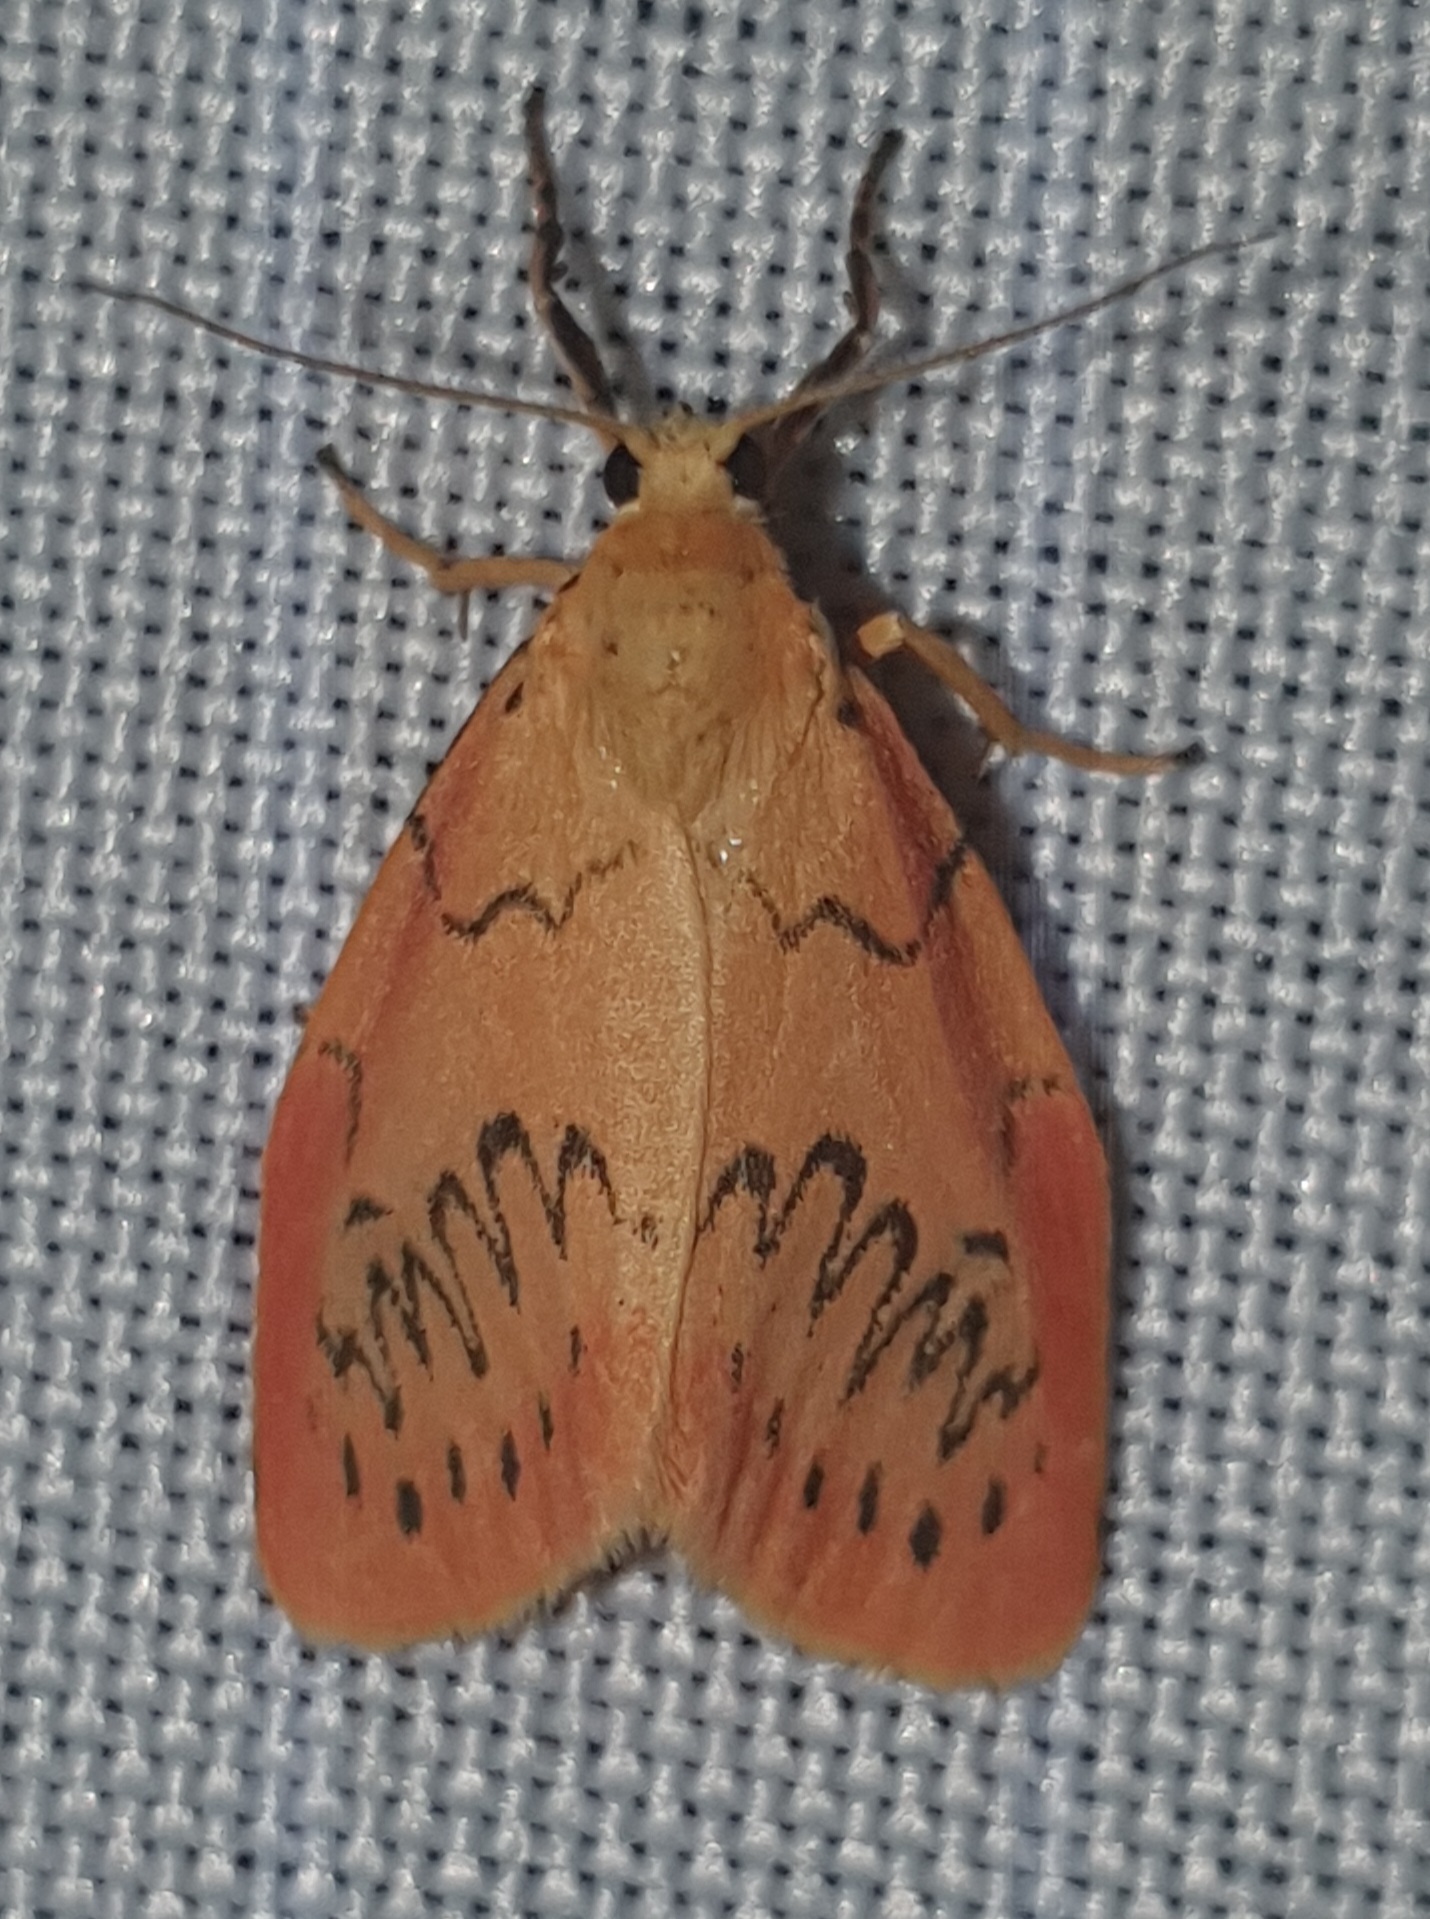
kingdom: Animalia
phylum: Arthropoda
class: Insecta
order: Lepidoptera
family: Erebidae
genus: Miltochrista
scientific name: Miltochrista miniata
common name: Rosy footman
